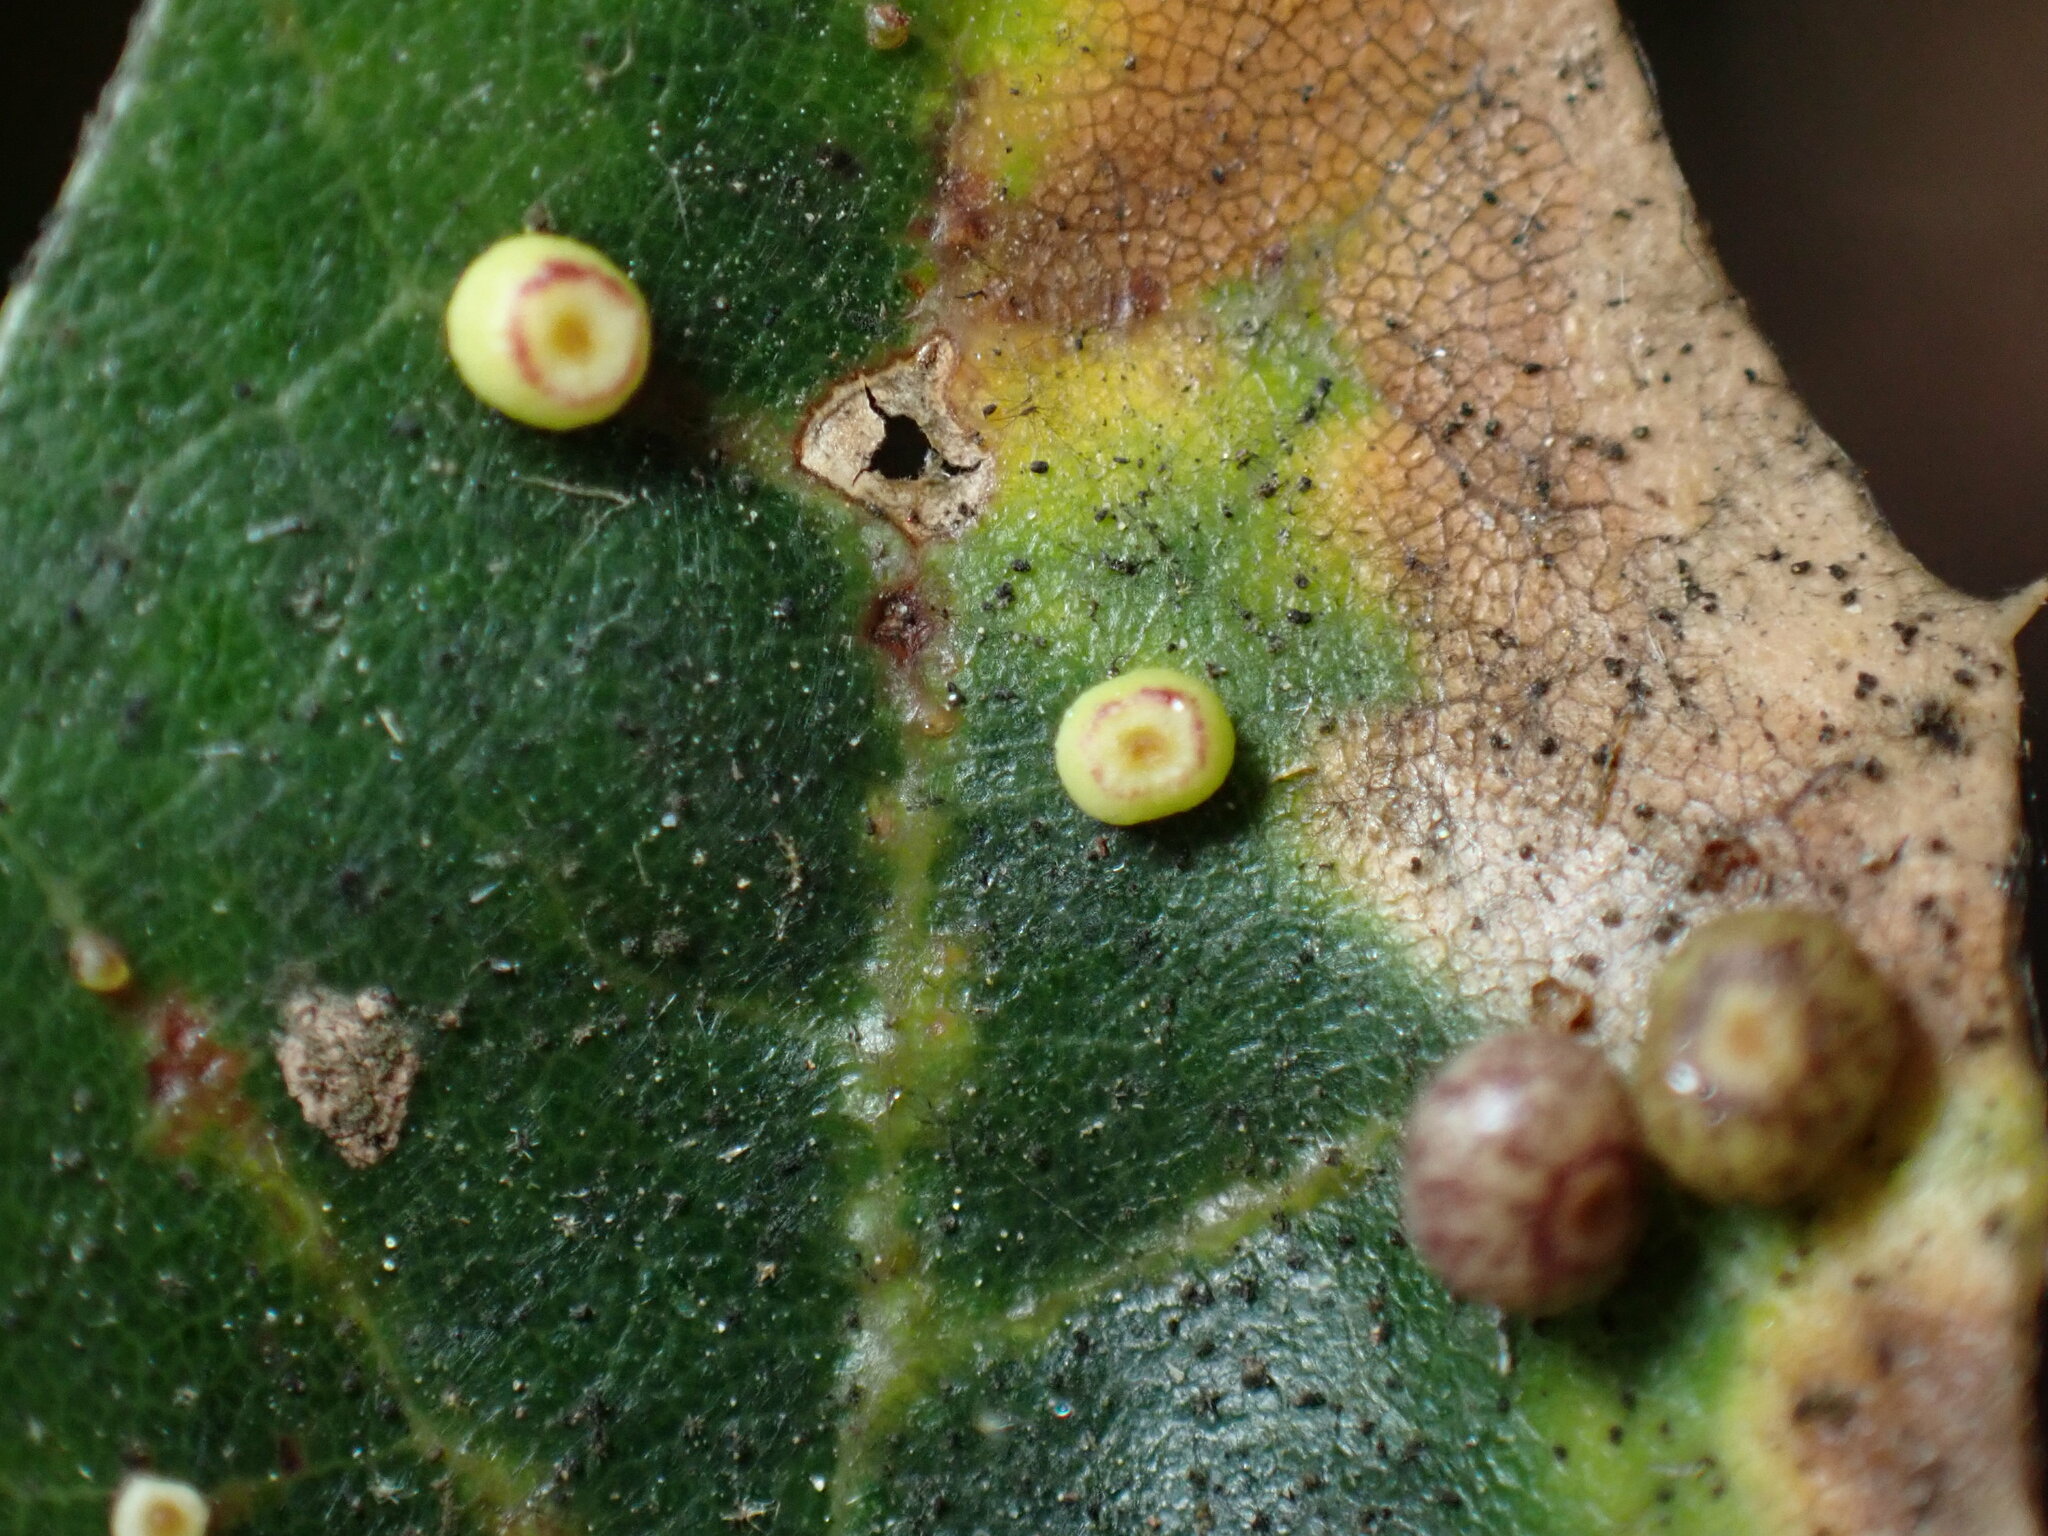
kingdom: Animalia
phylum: Arthropoda
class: Insecta
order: Hymenoptera
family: Cynipidae
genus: Dryocosmus
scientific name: Dryocosmus
